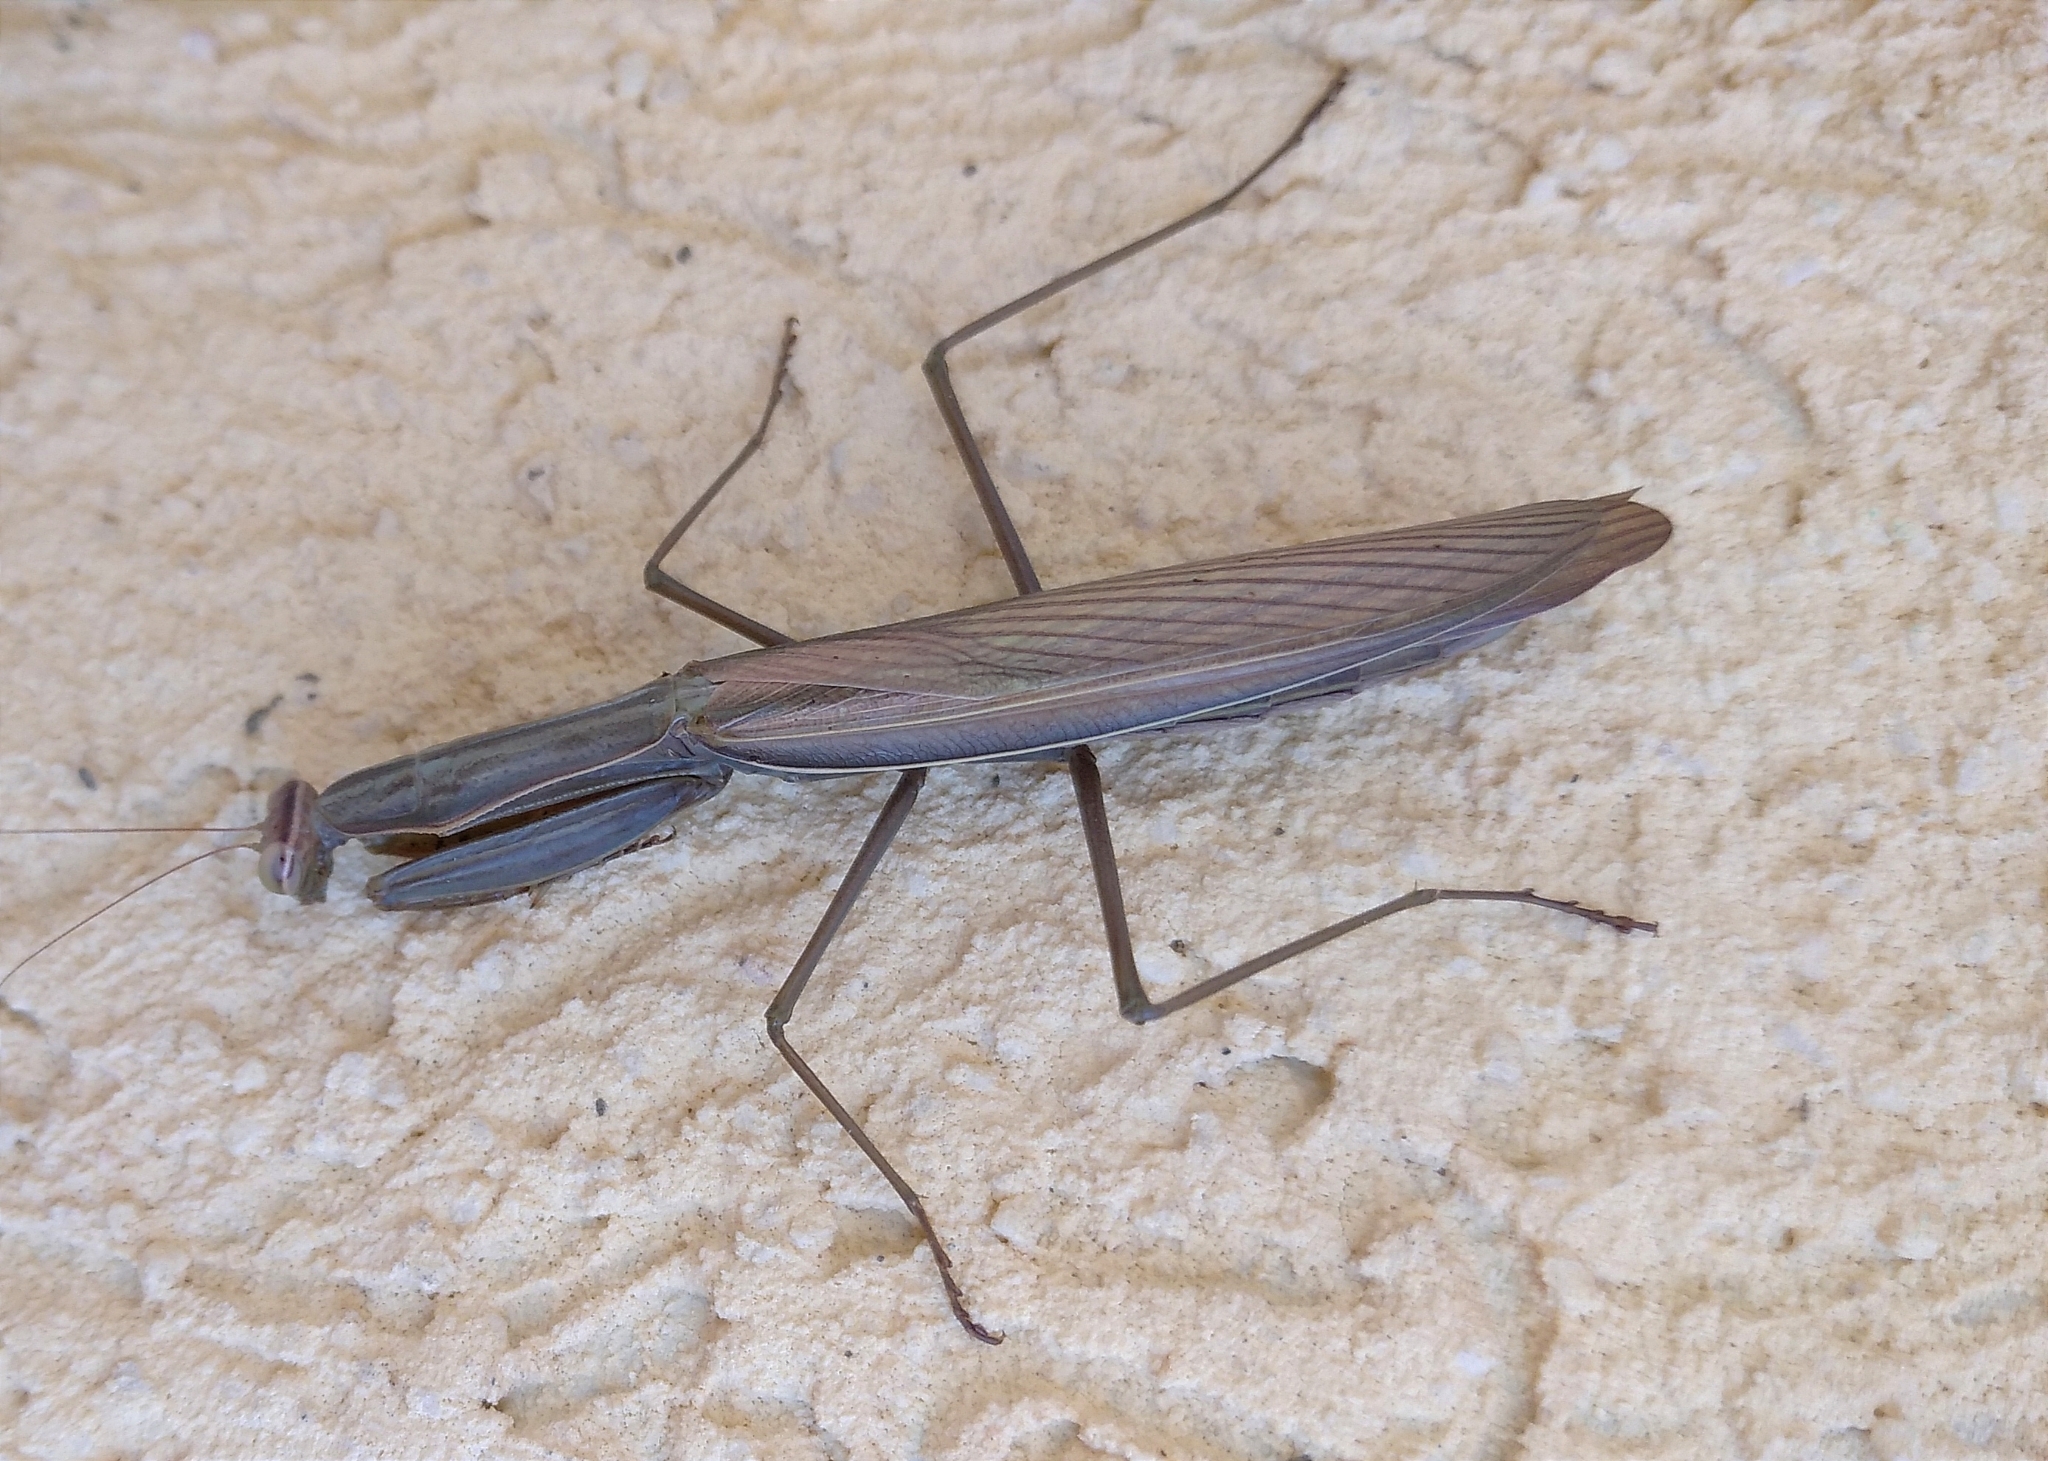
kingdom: Animalia
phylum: Arthropoda
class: Insecta
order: Mantodea
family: Mantidae
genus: Mantis
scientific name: Mantis religiosa
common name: Praying mantis
